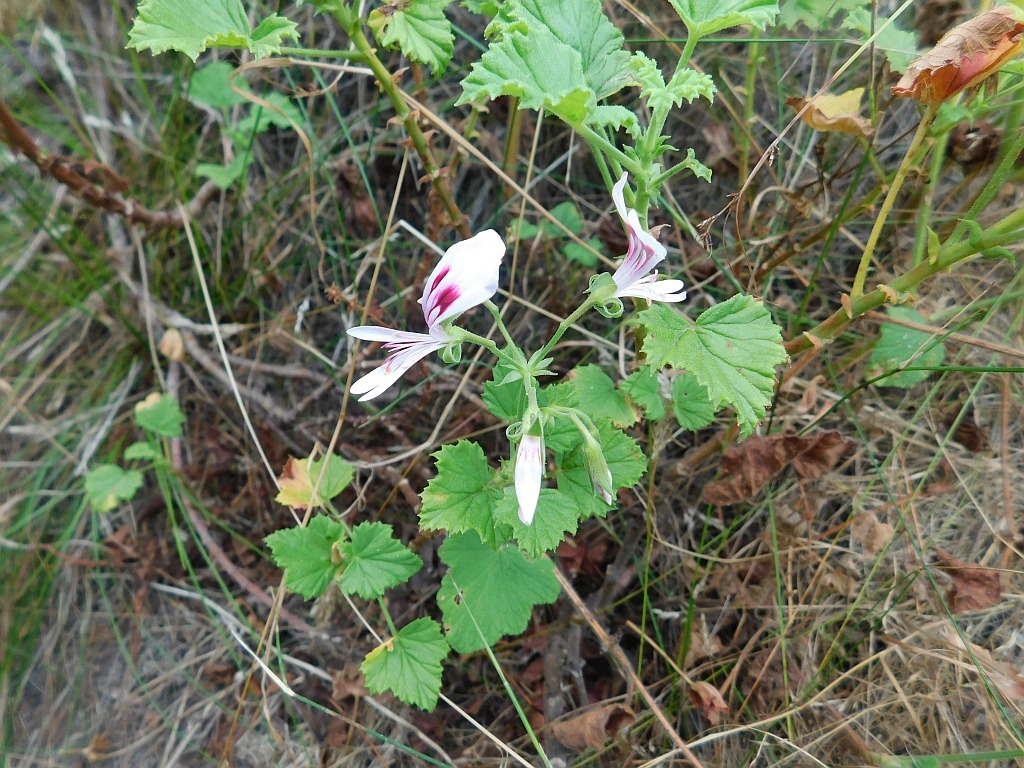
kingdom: Plantae
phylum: Tracheophyta
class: Magnoliopsida
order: Geraniales
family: Geraniaceae
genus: Pelargonium
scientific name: Pelargonium greytonense
